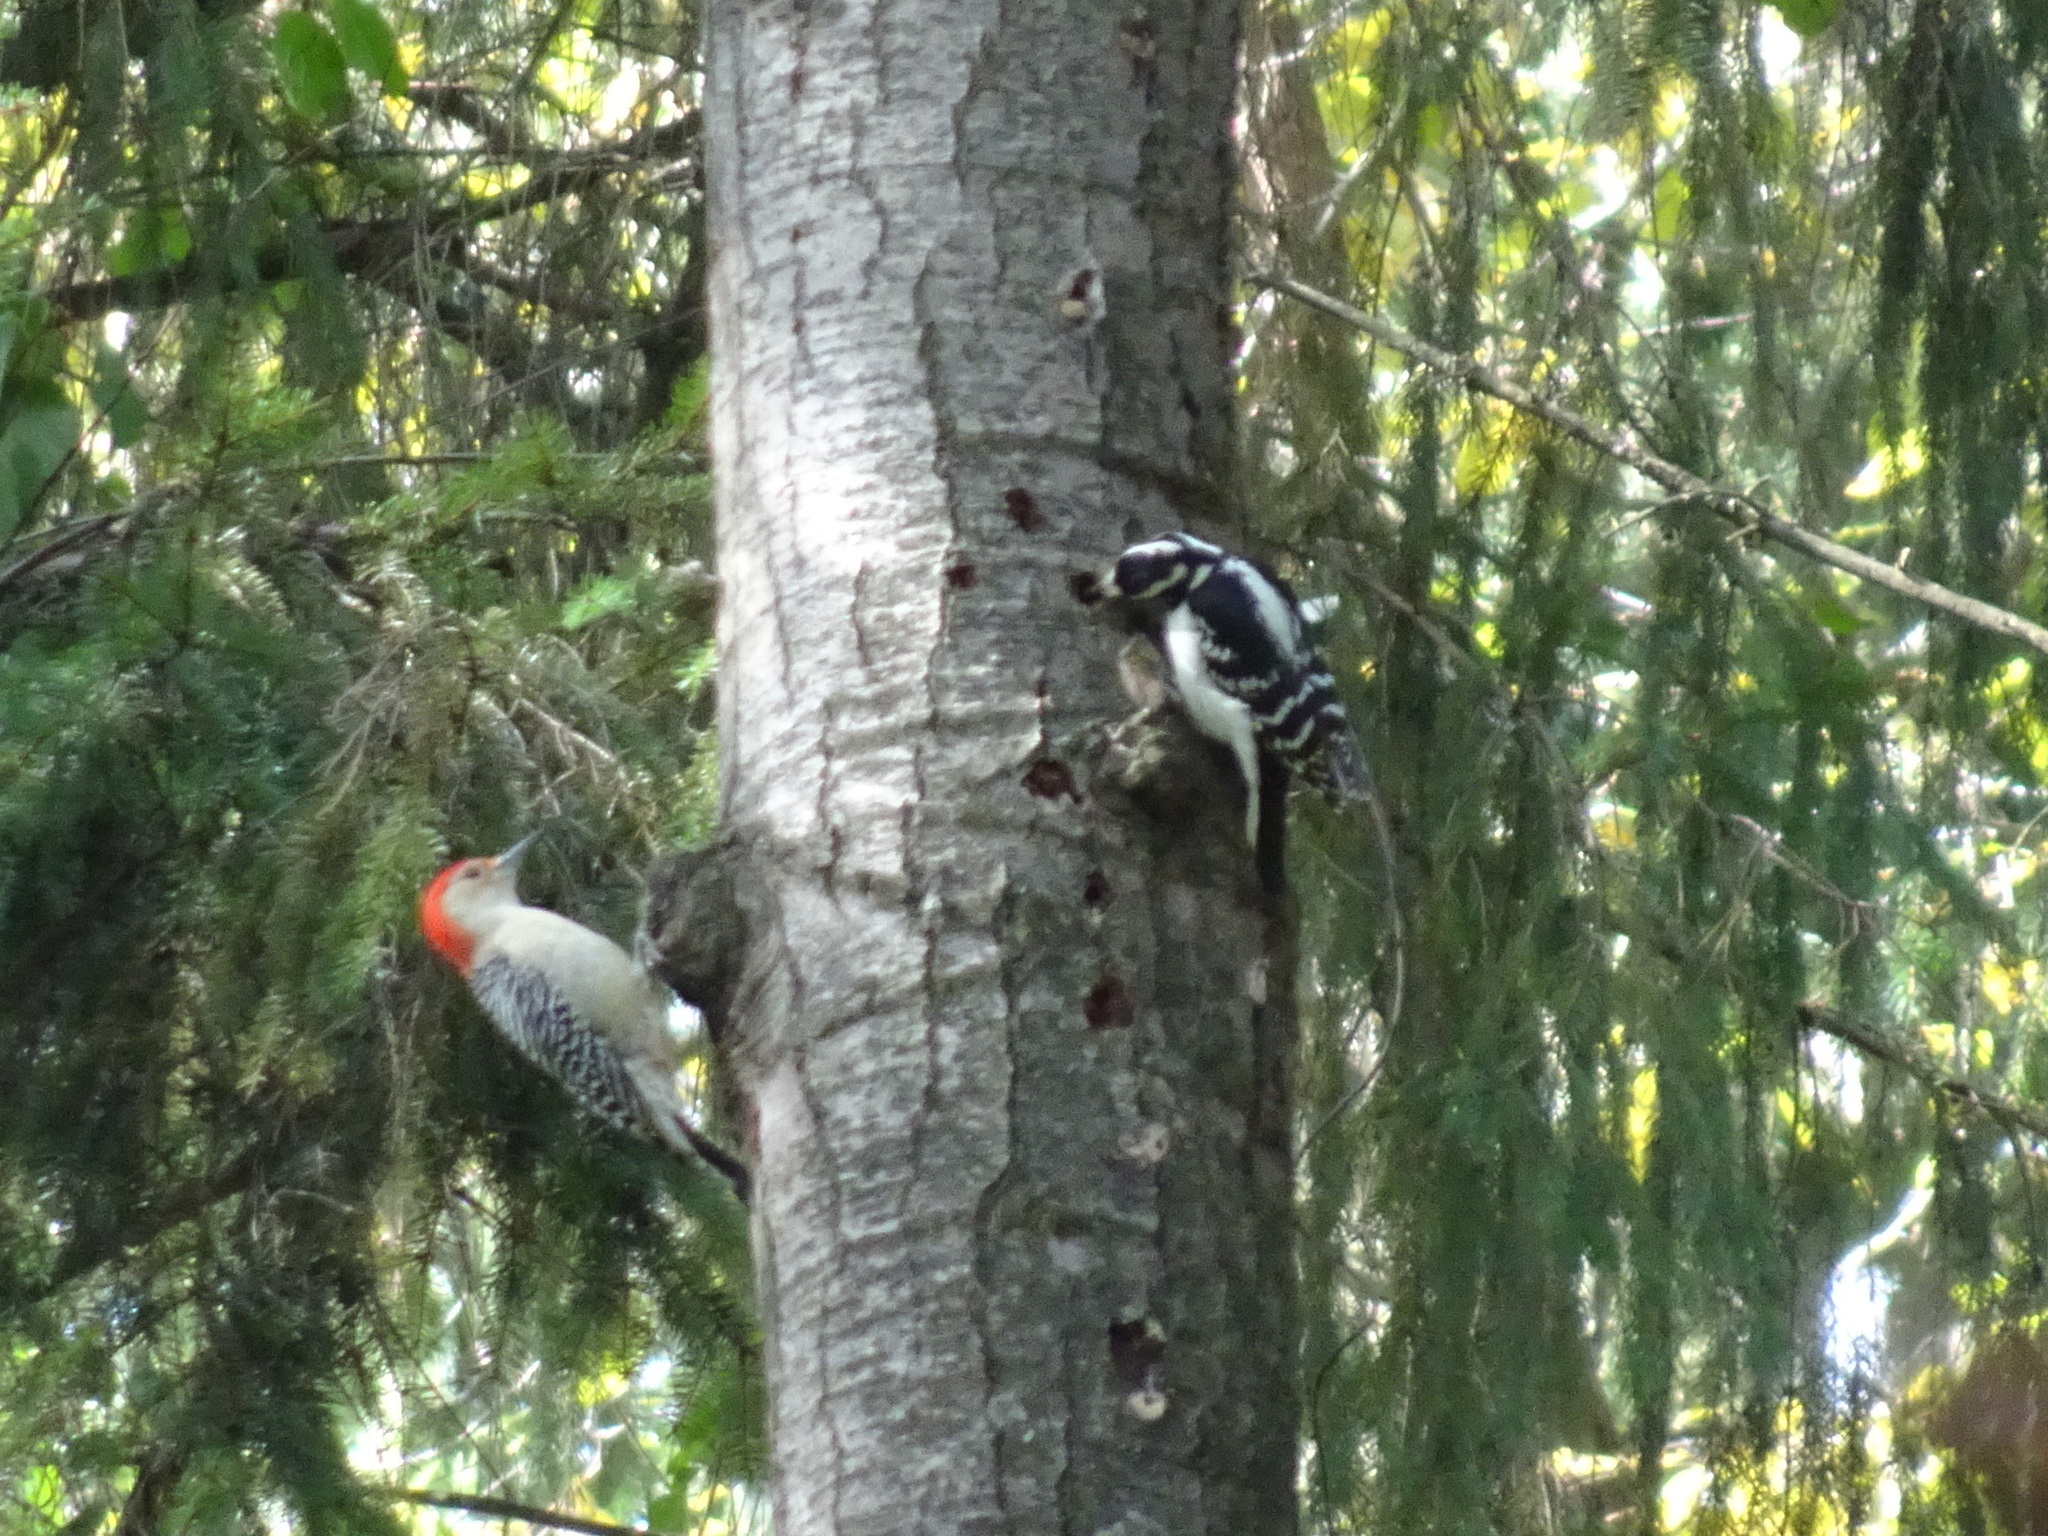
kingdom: Animalia
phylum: Chordata
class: Aves
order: Piciformes
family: Picidae
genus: Melanerpes
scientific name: Melanerpes carolinus
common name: Red-bellied woodpecker
